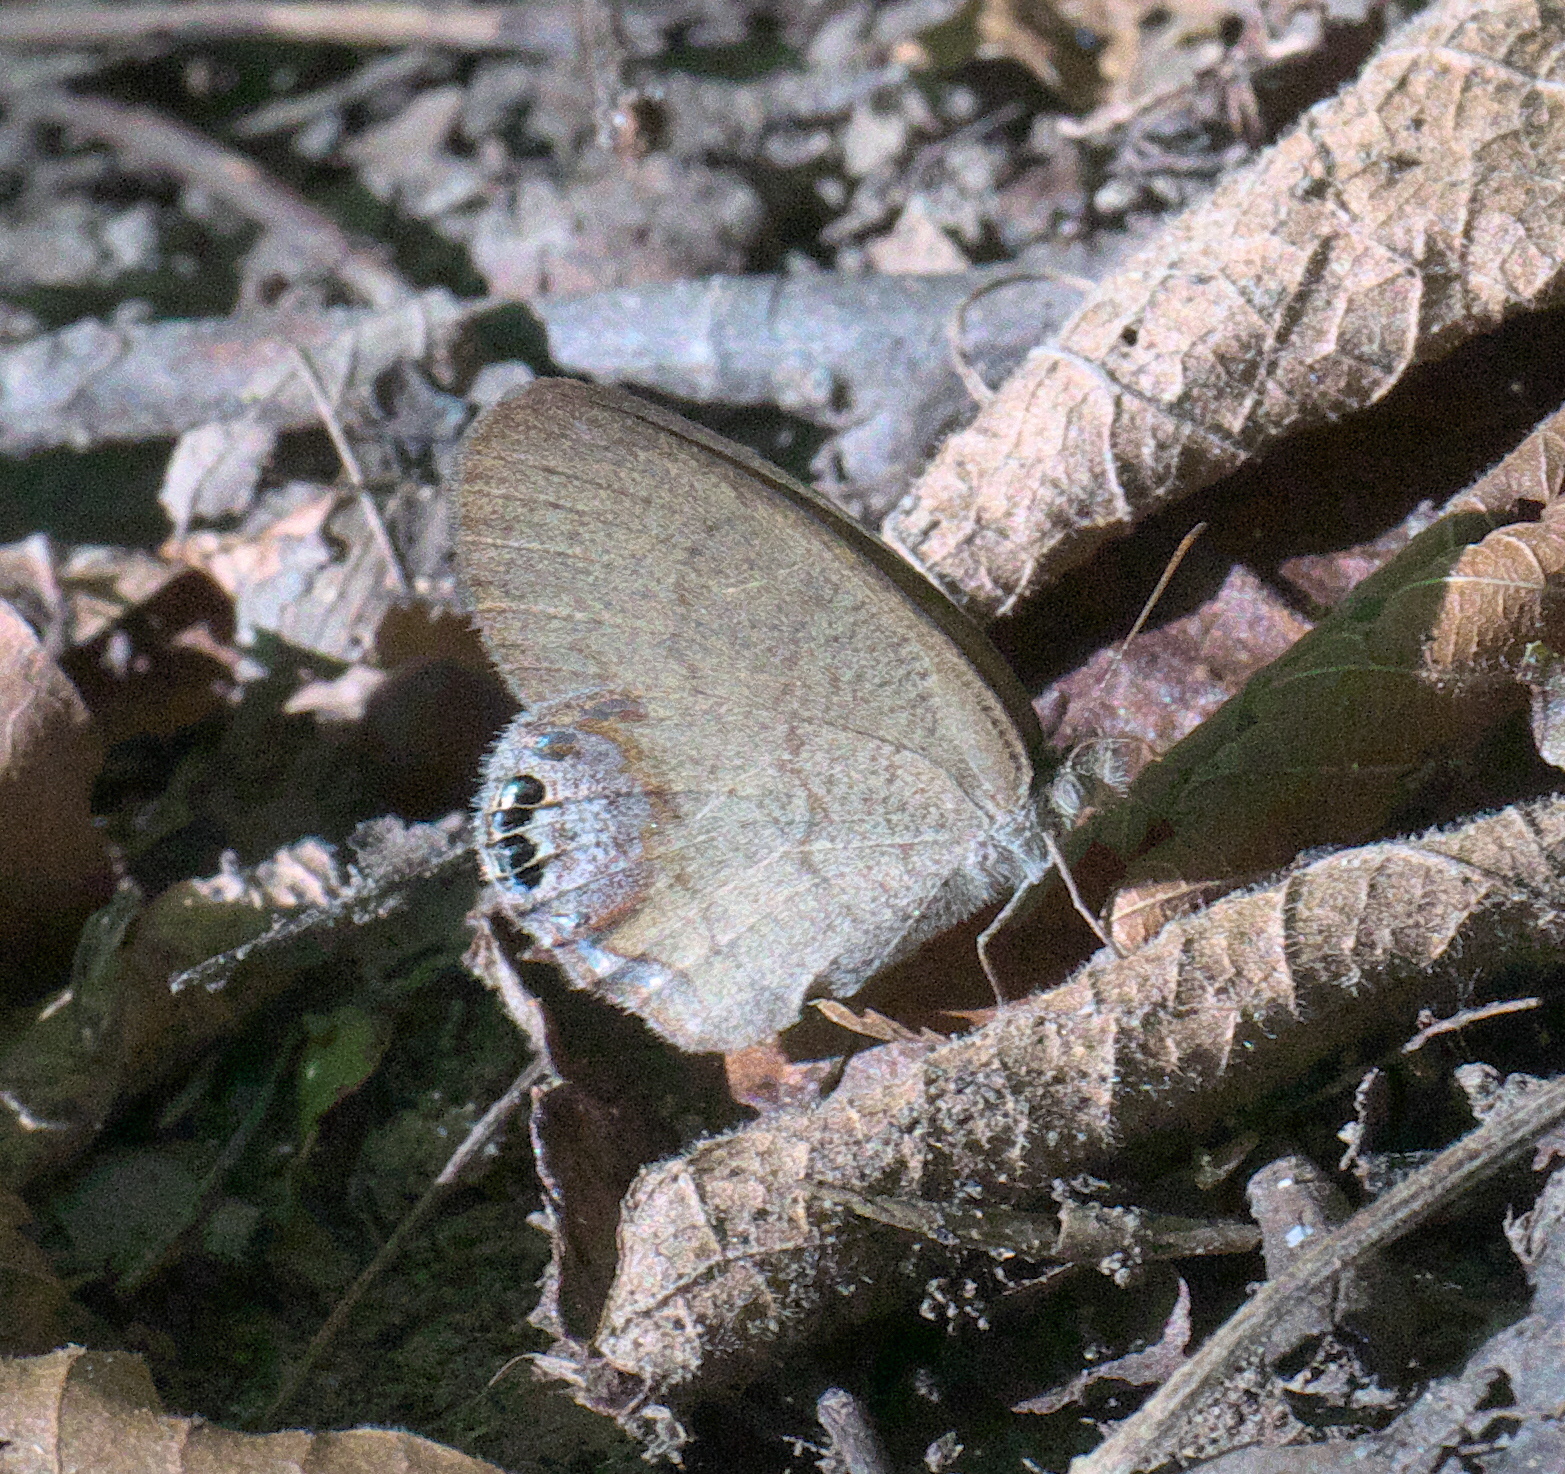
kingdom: Animalia
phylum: Arthropoda
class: Insecta
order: Lepidoptera
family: Nymphalidae
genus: Euptychia
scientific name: Euptychia cornelius
